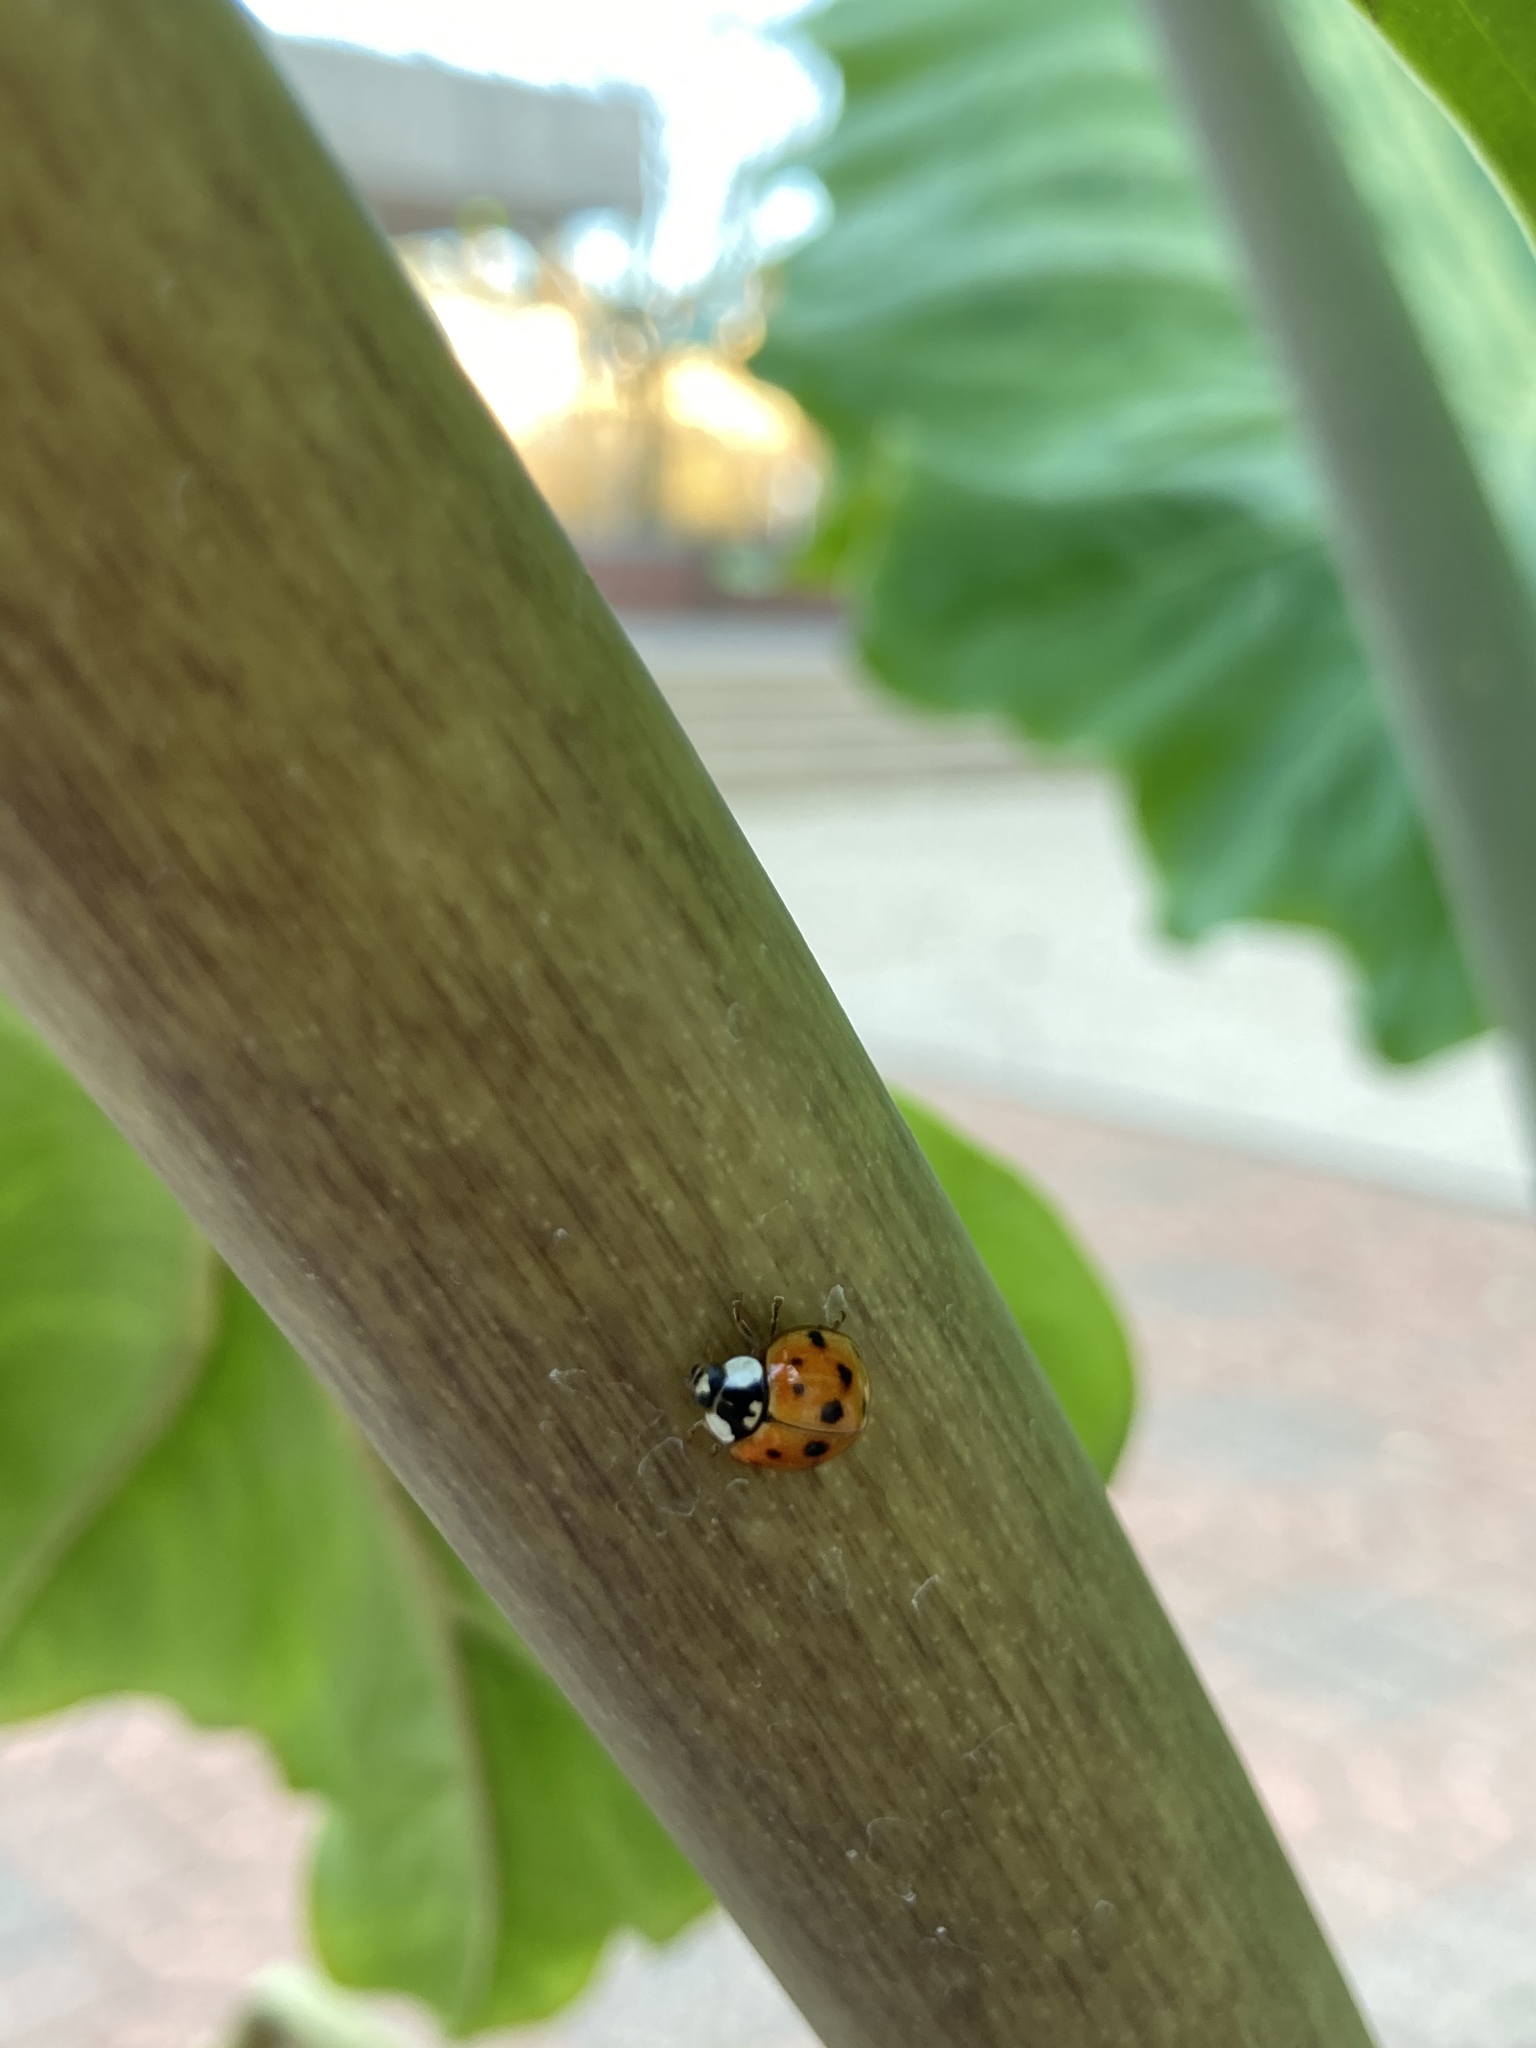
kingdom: Animalia
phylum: Arthropoda
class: Insecta
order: Coleoptera
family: Coccinellidae
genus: Harmonia
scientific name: Harmonia axyridis
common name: Harlequin ladybird
